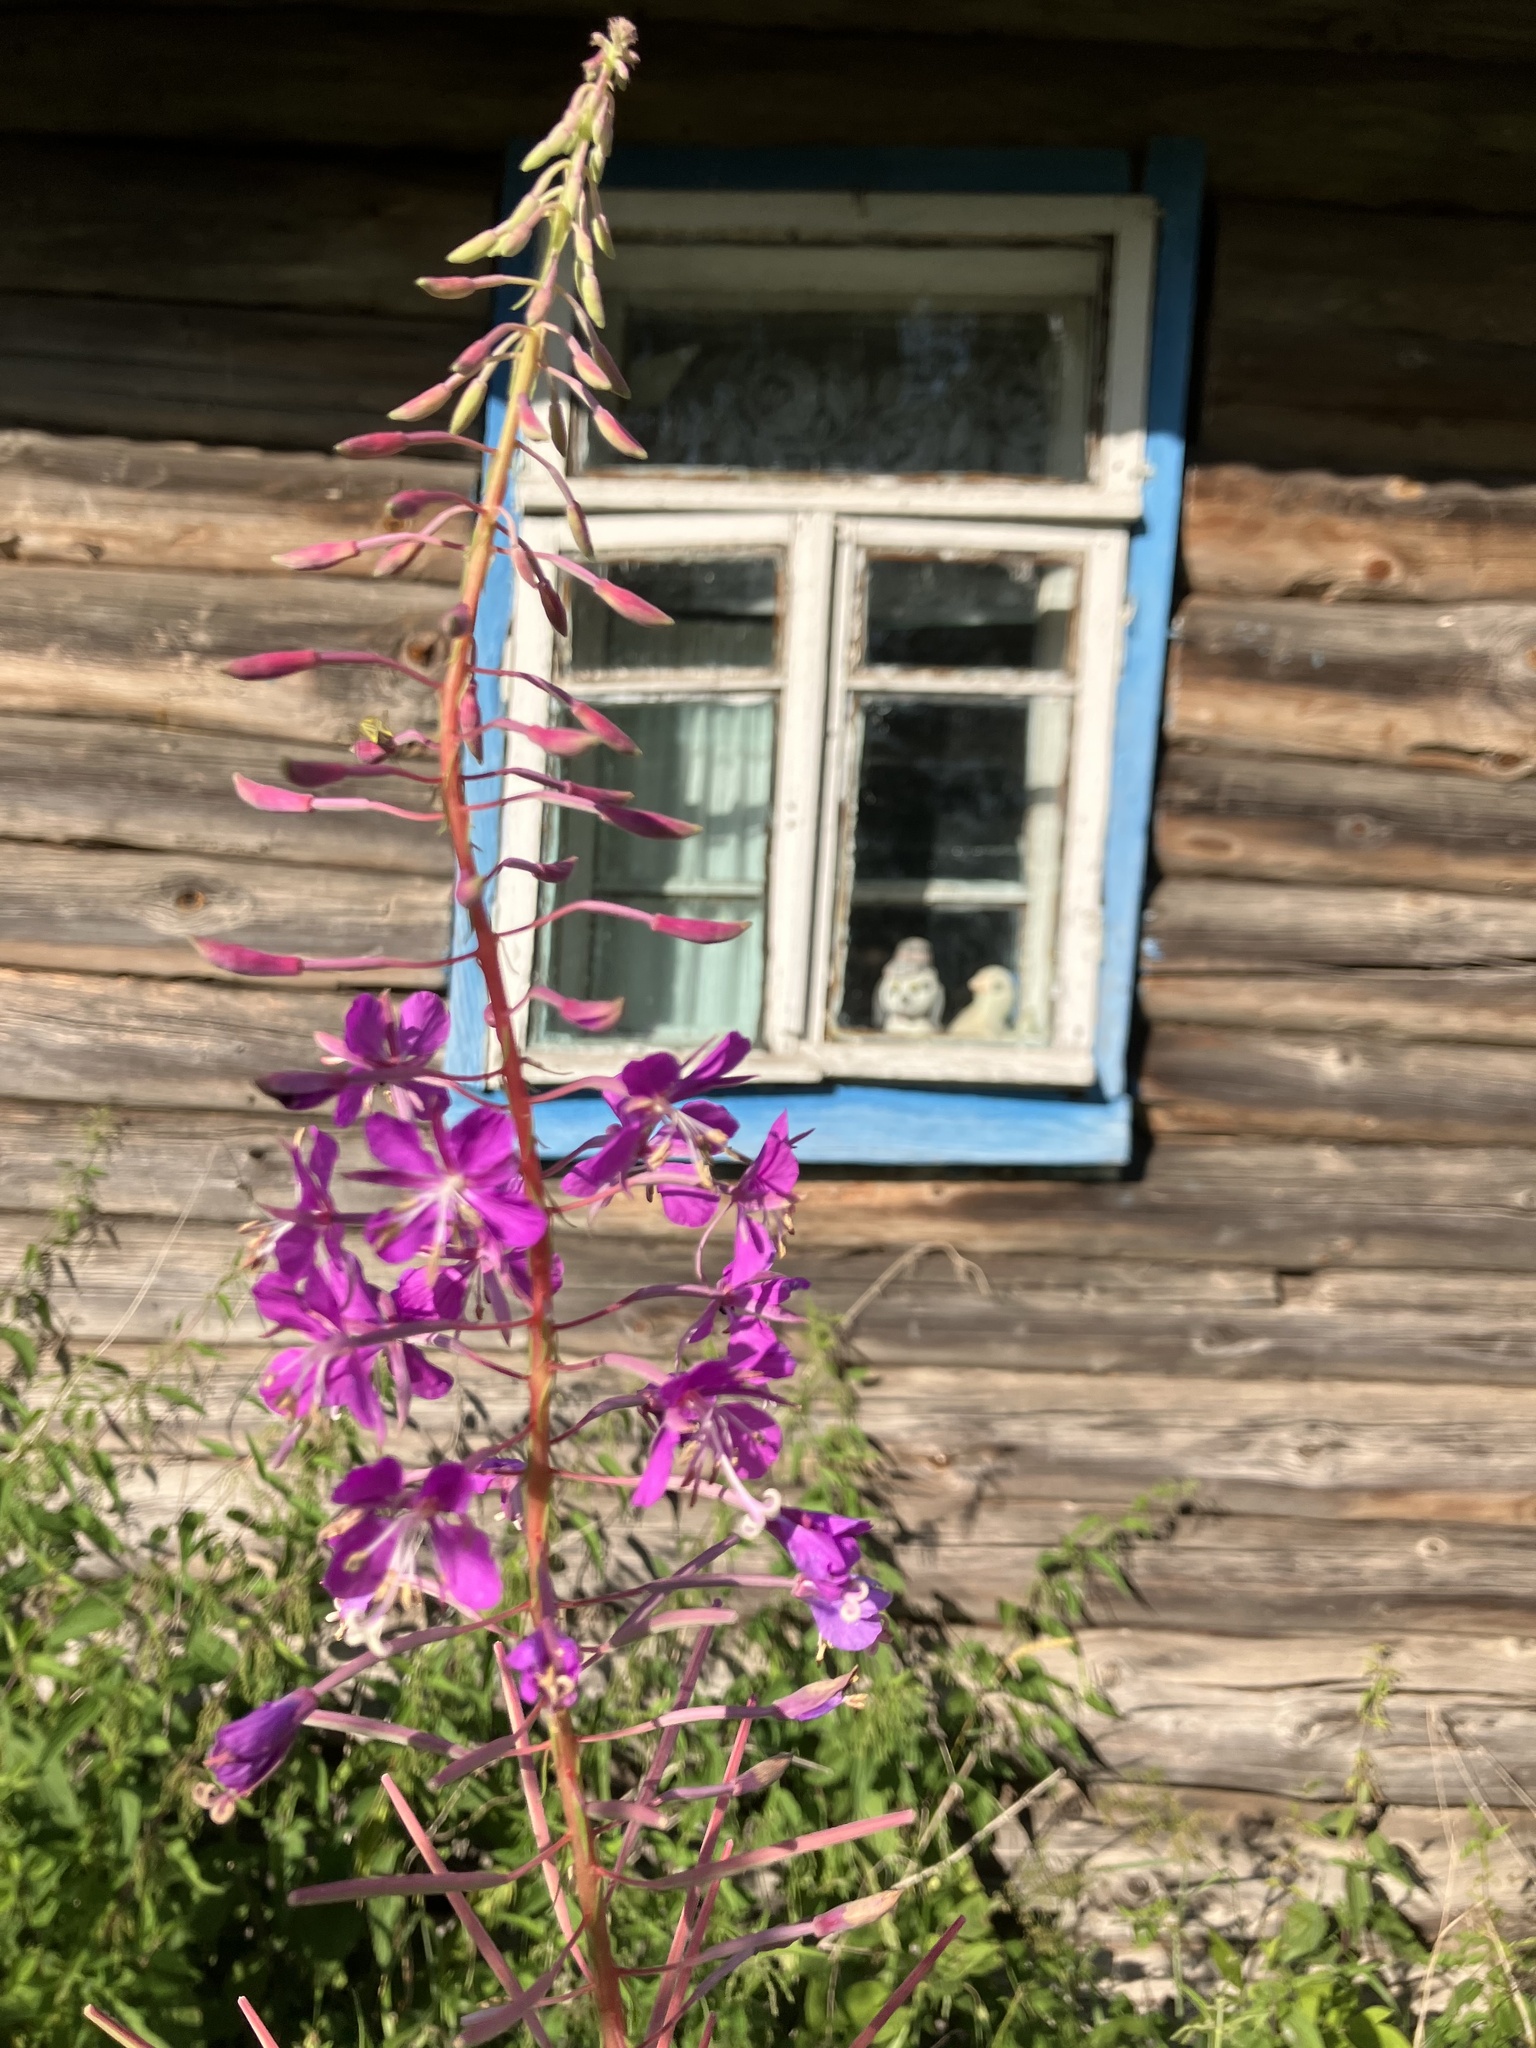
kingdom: Plantae
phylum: Tracheophyta
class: Magnoliopsida
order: Myrtales
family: Onagraceae
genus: Chamaenerion
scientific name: Chamaenerion angustifolium
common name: Fireweed
